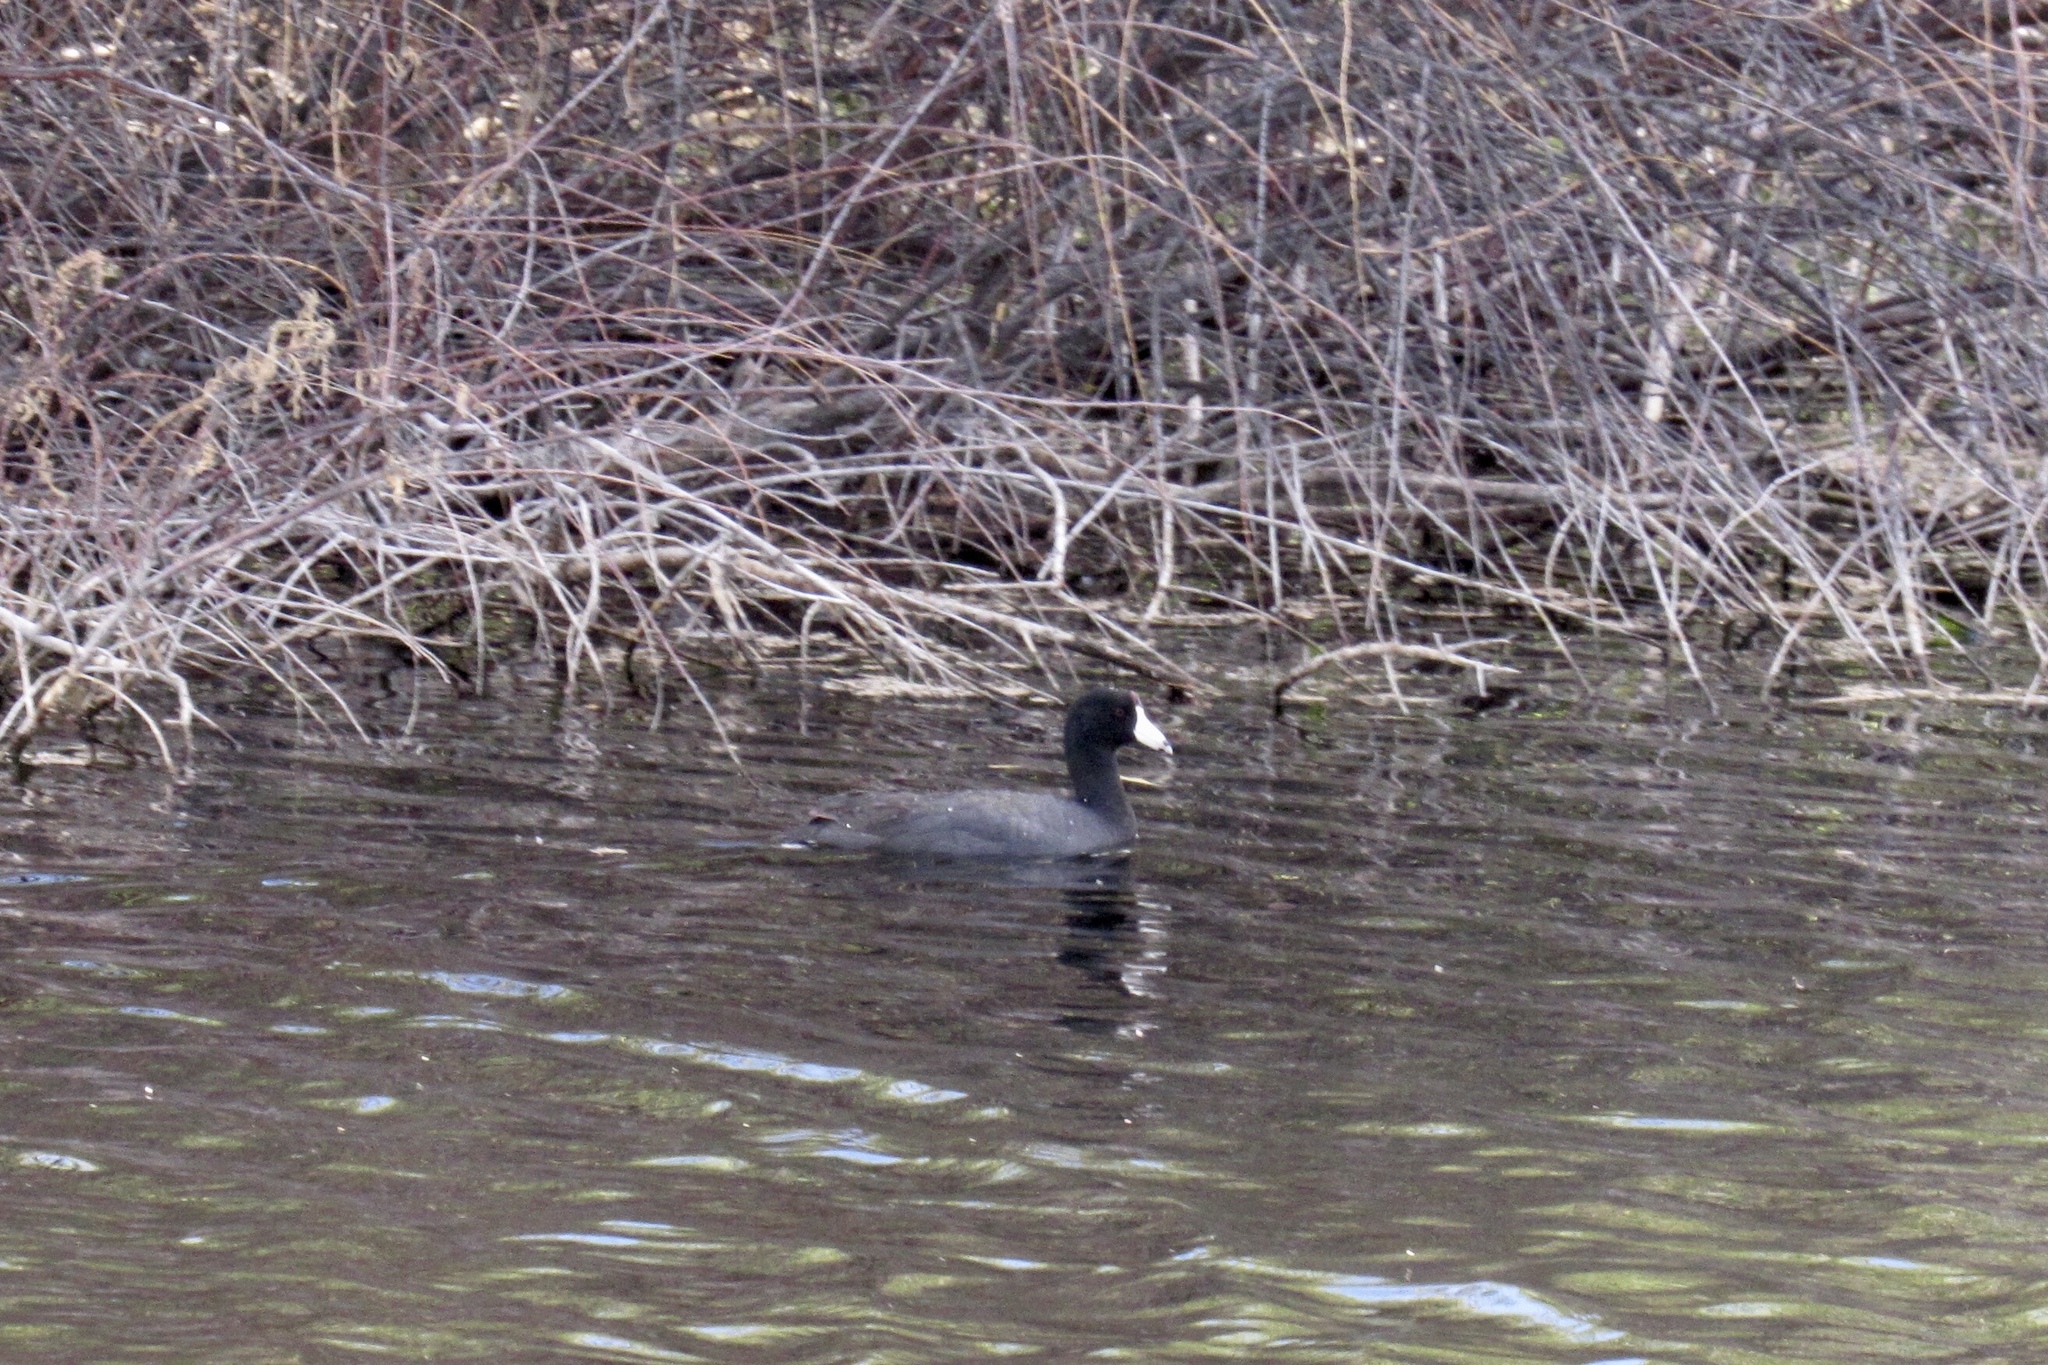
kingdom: Animalia
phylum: Chordata
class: Aves
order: Gruiformes
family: Rallidae
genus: Fulica
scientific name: Fulica americana
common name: American coot
